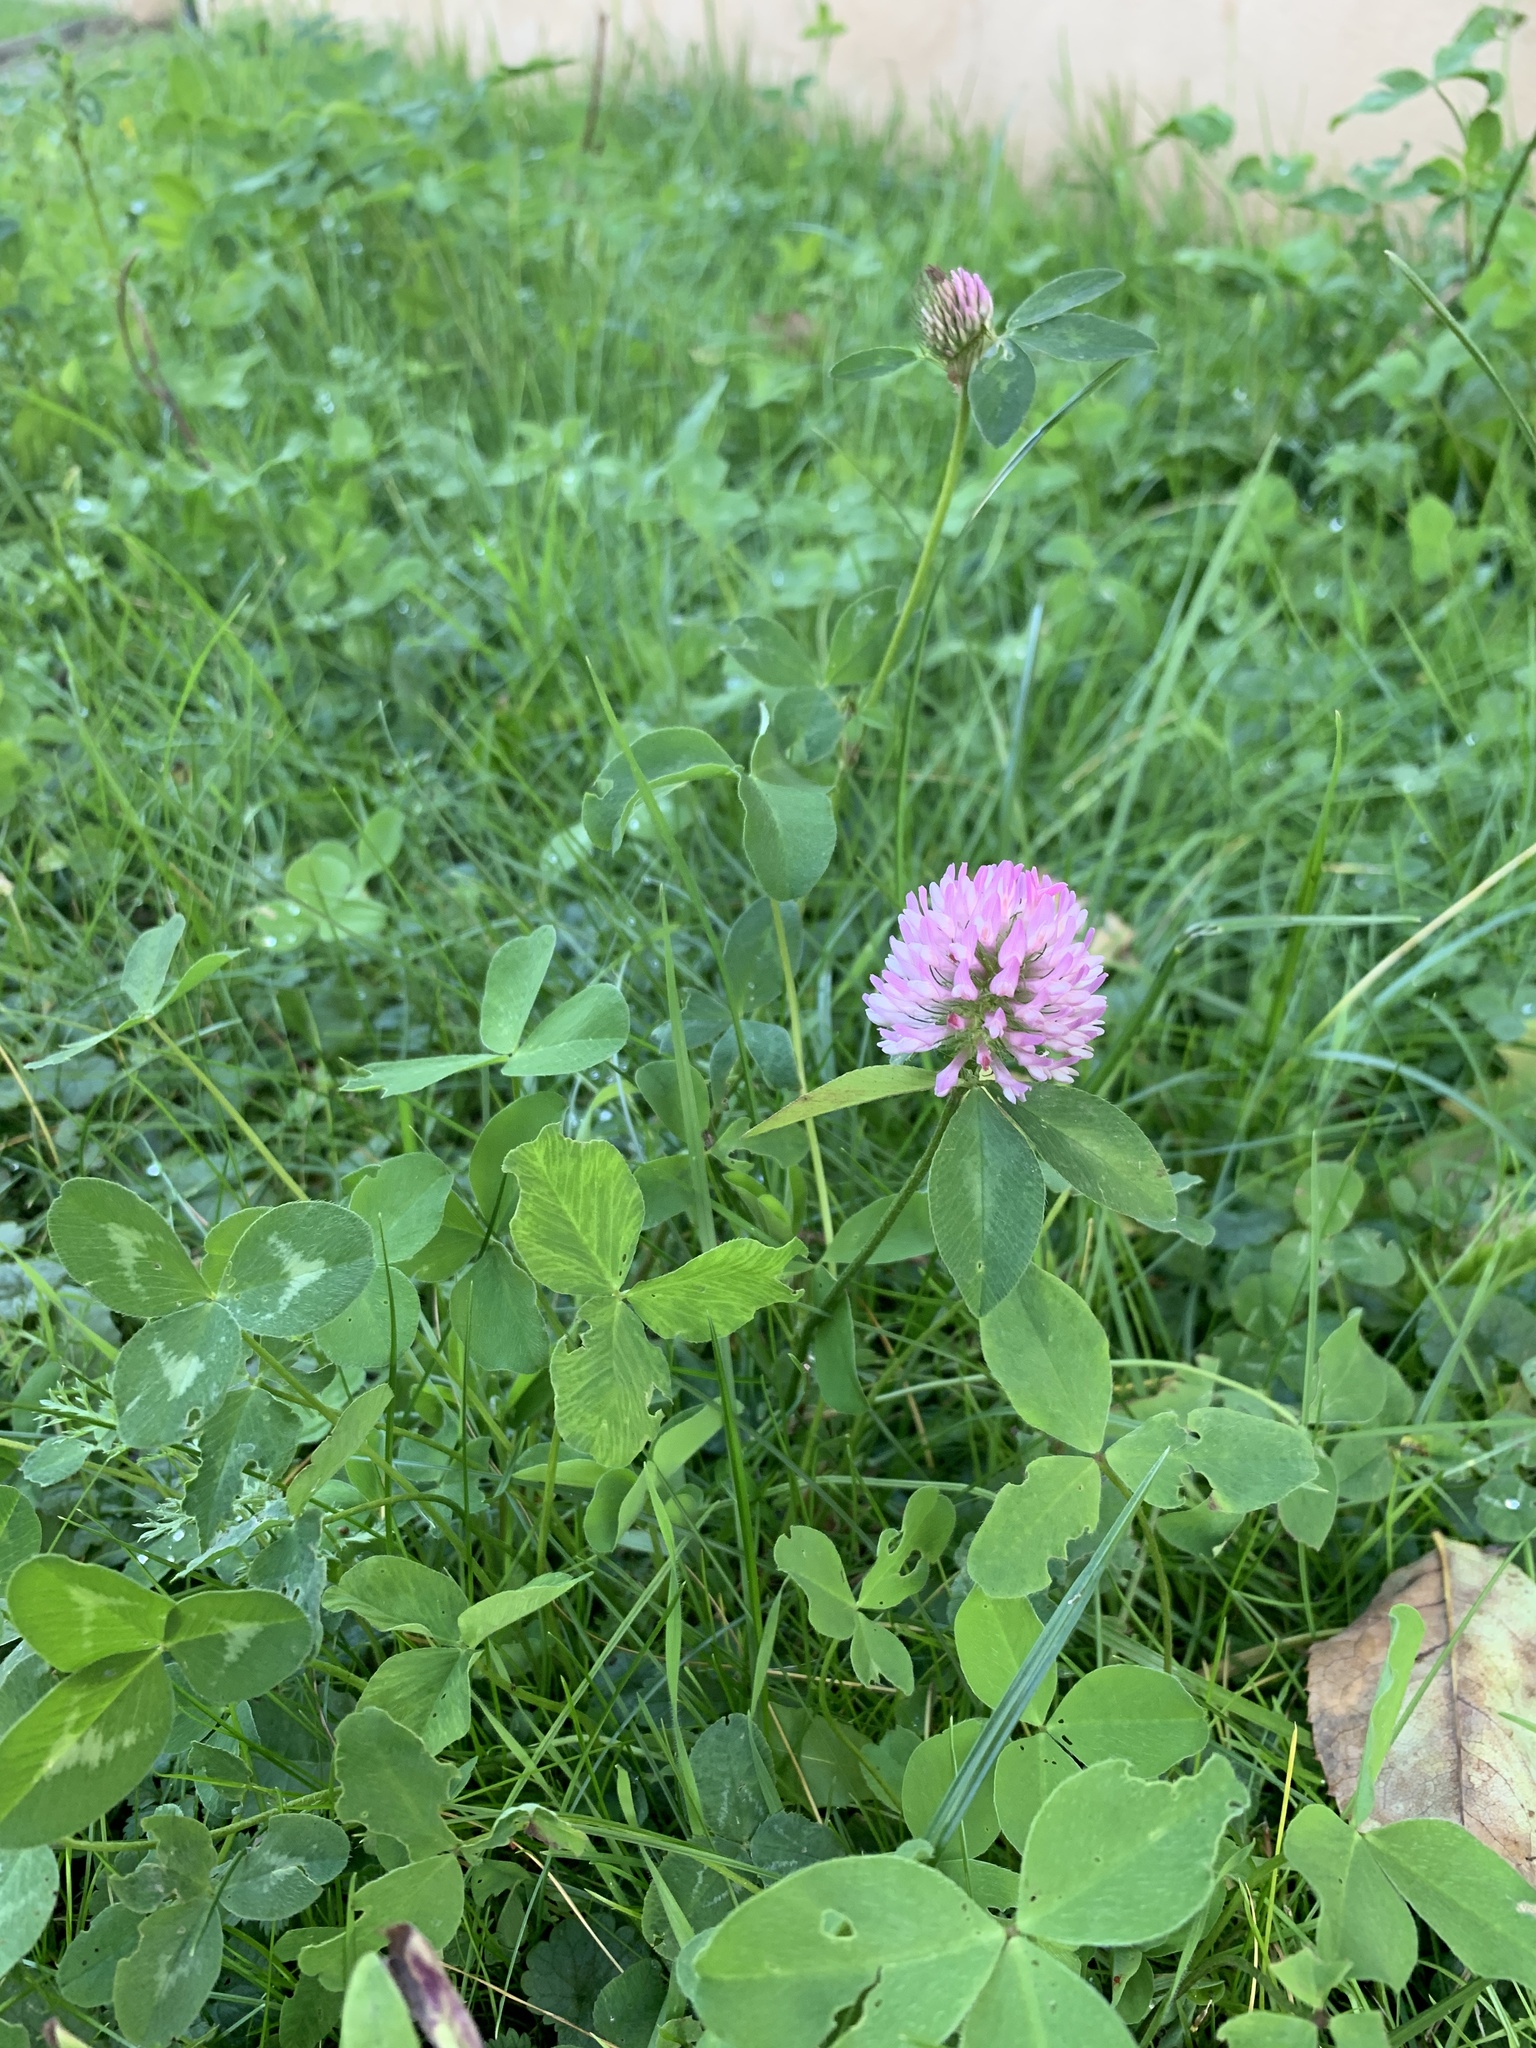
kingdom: Plantae
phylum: Tracheophyta
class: Magnoliopsida
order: Fabales
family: Fabaceae
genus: Trifolium
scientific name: Trifolium pratense
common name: Red clover
